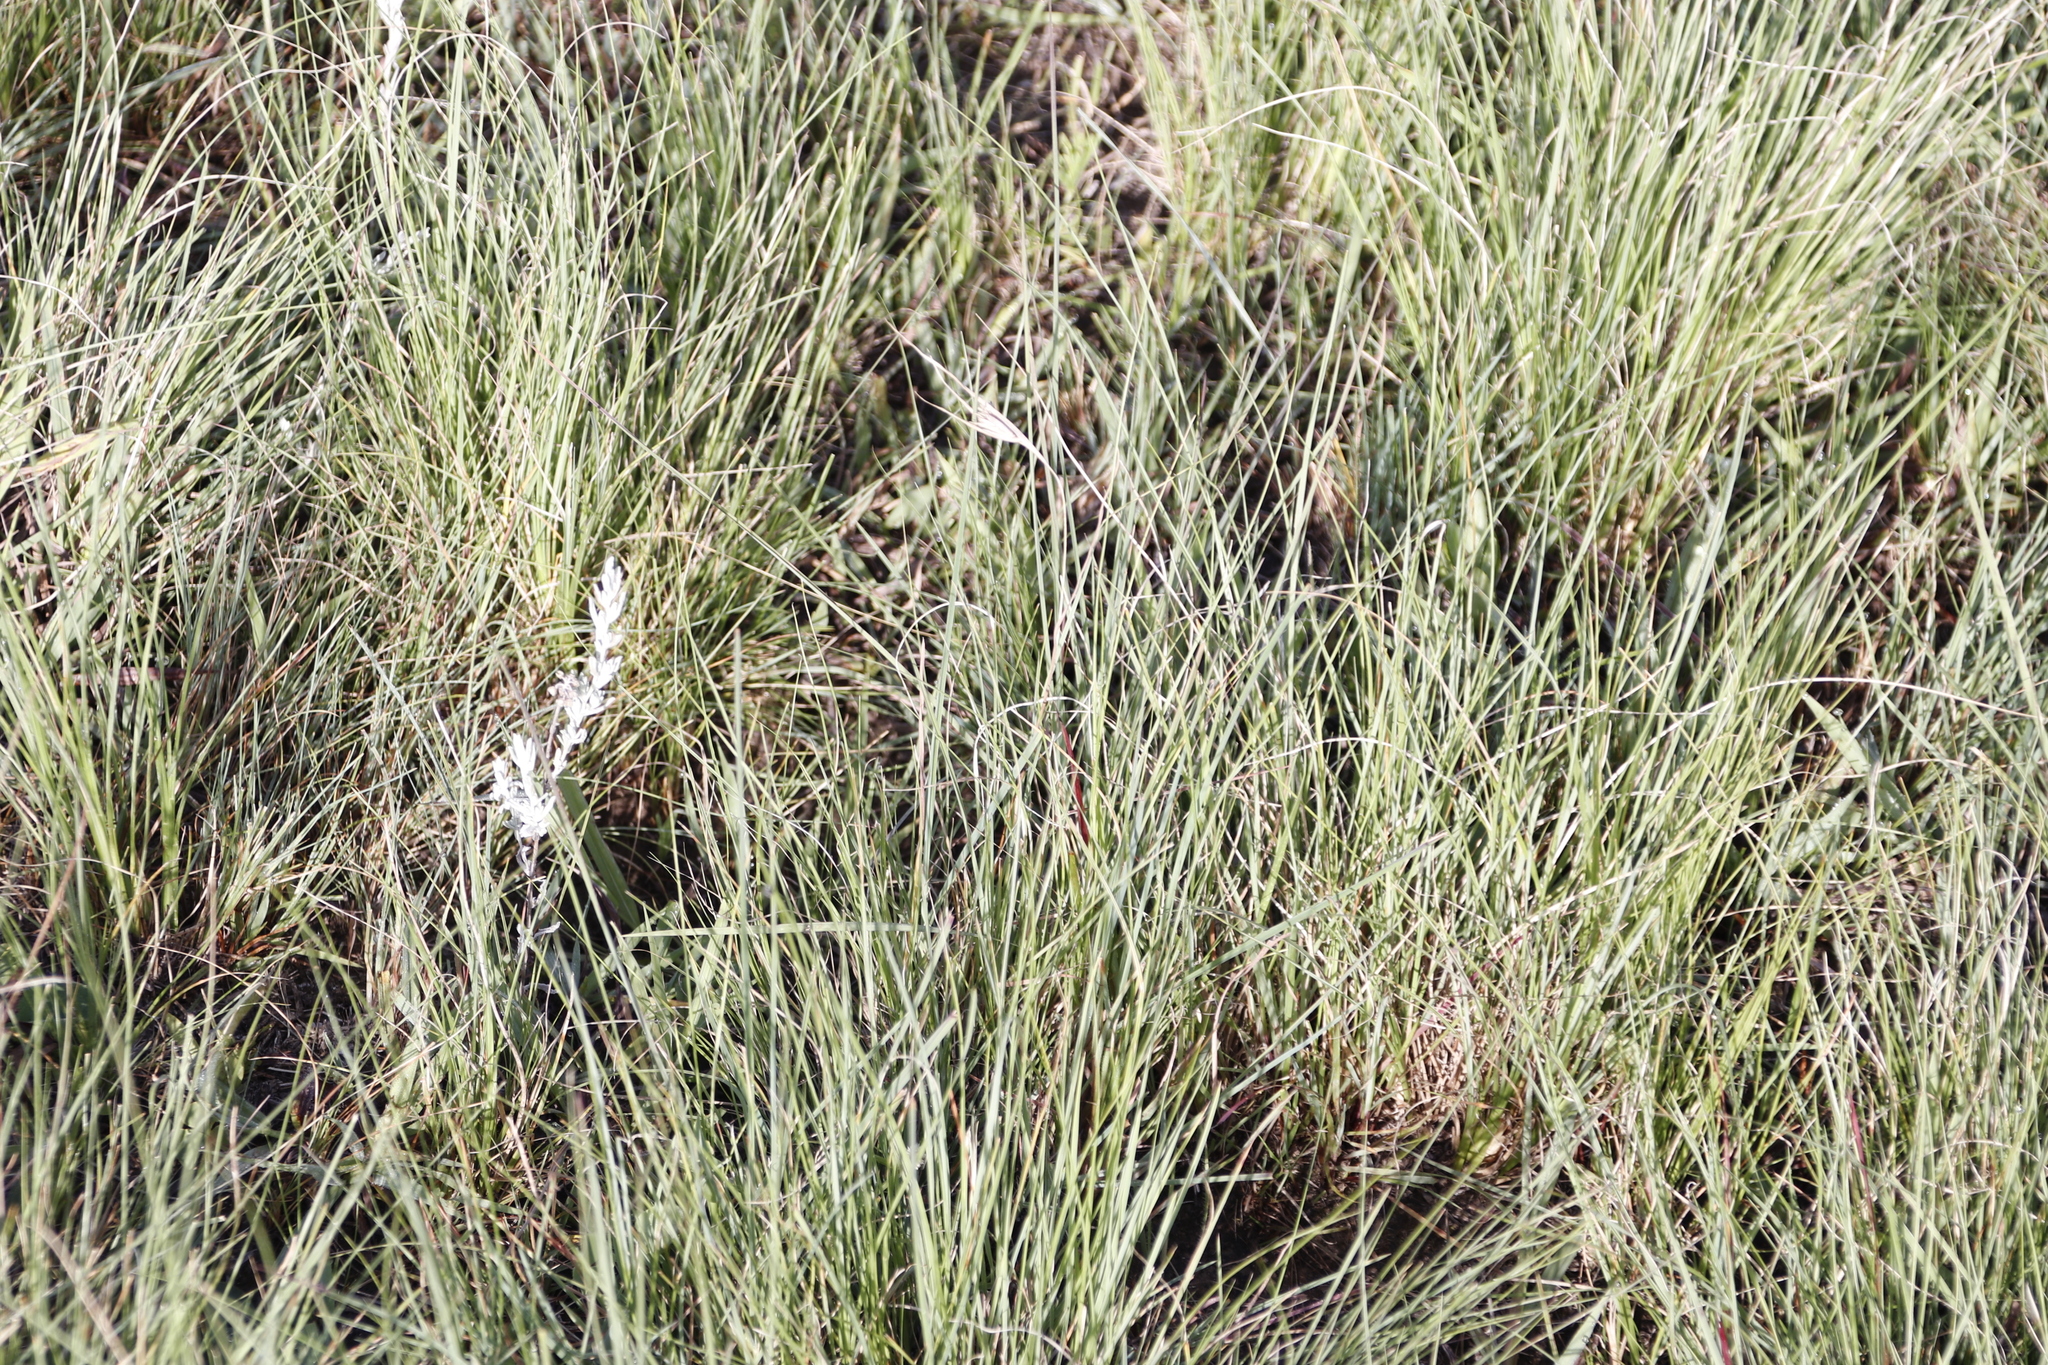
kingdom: Plantae
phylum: Tracheophyta
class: Liliopsida
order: Poales
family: Poaceae
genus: Themeda
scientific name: Themeda triandra
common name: Kangaroo grass
